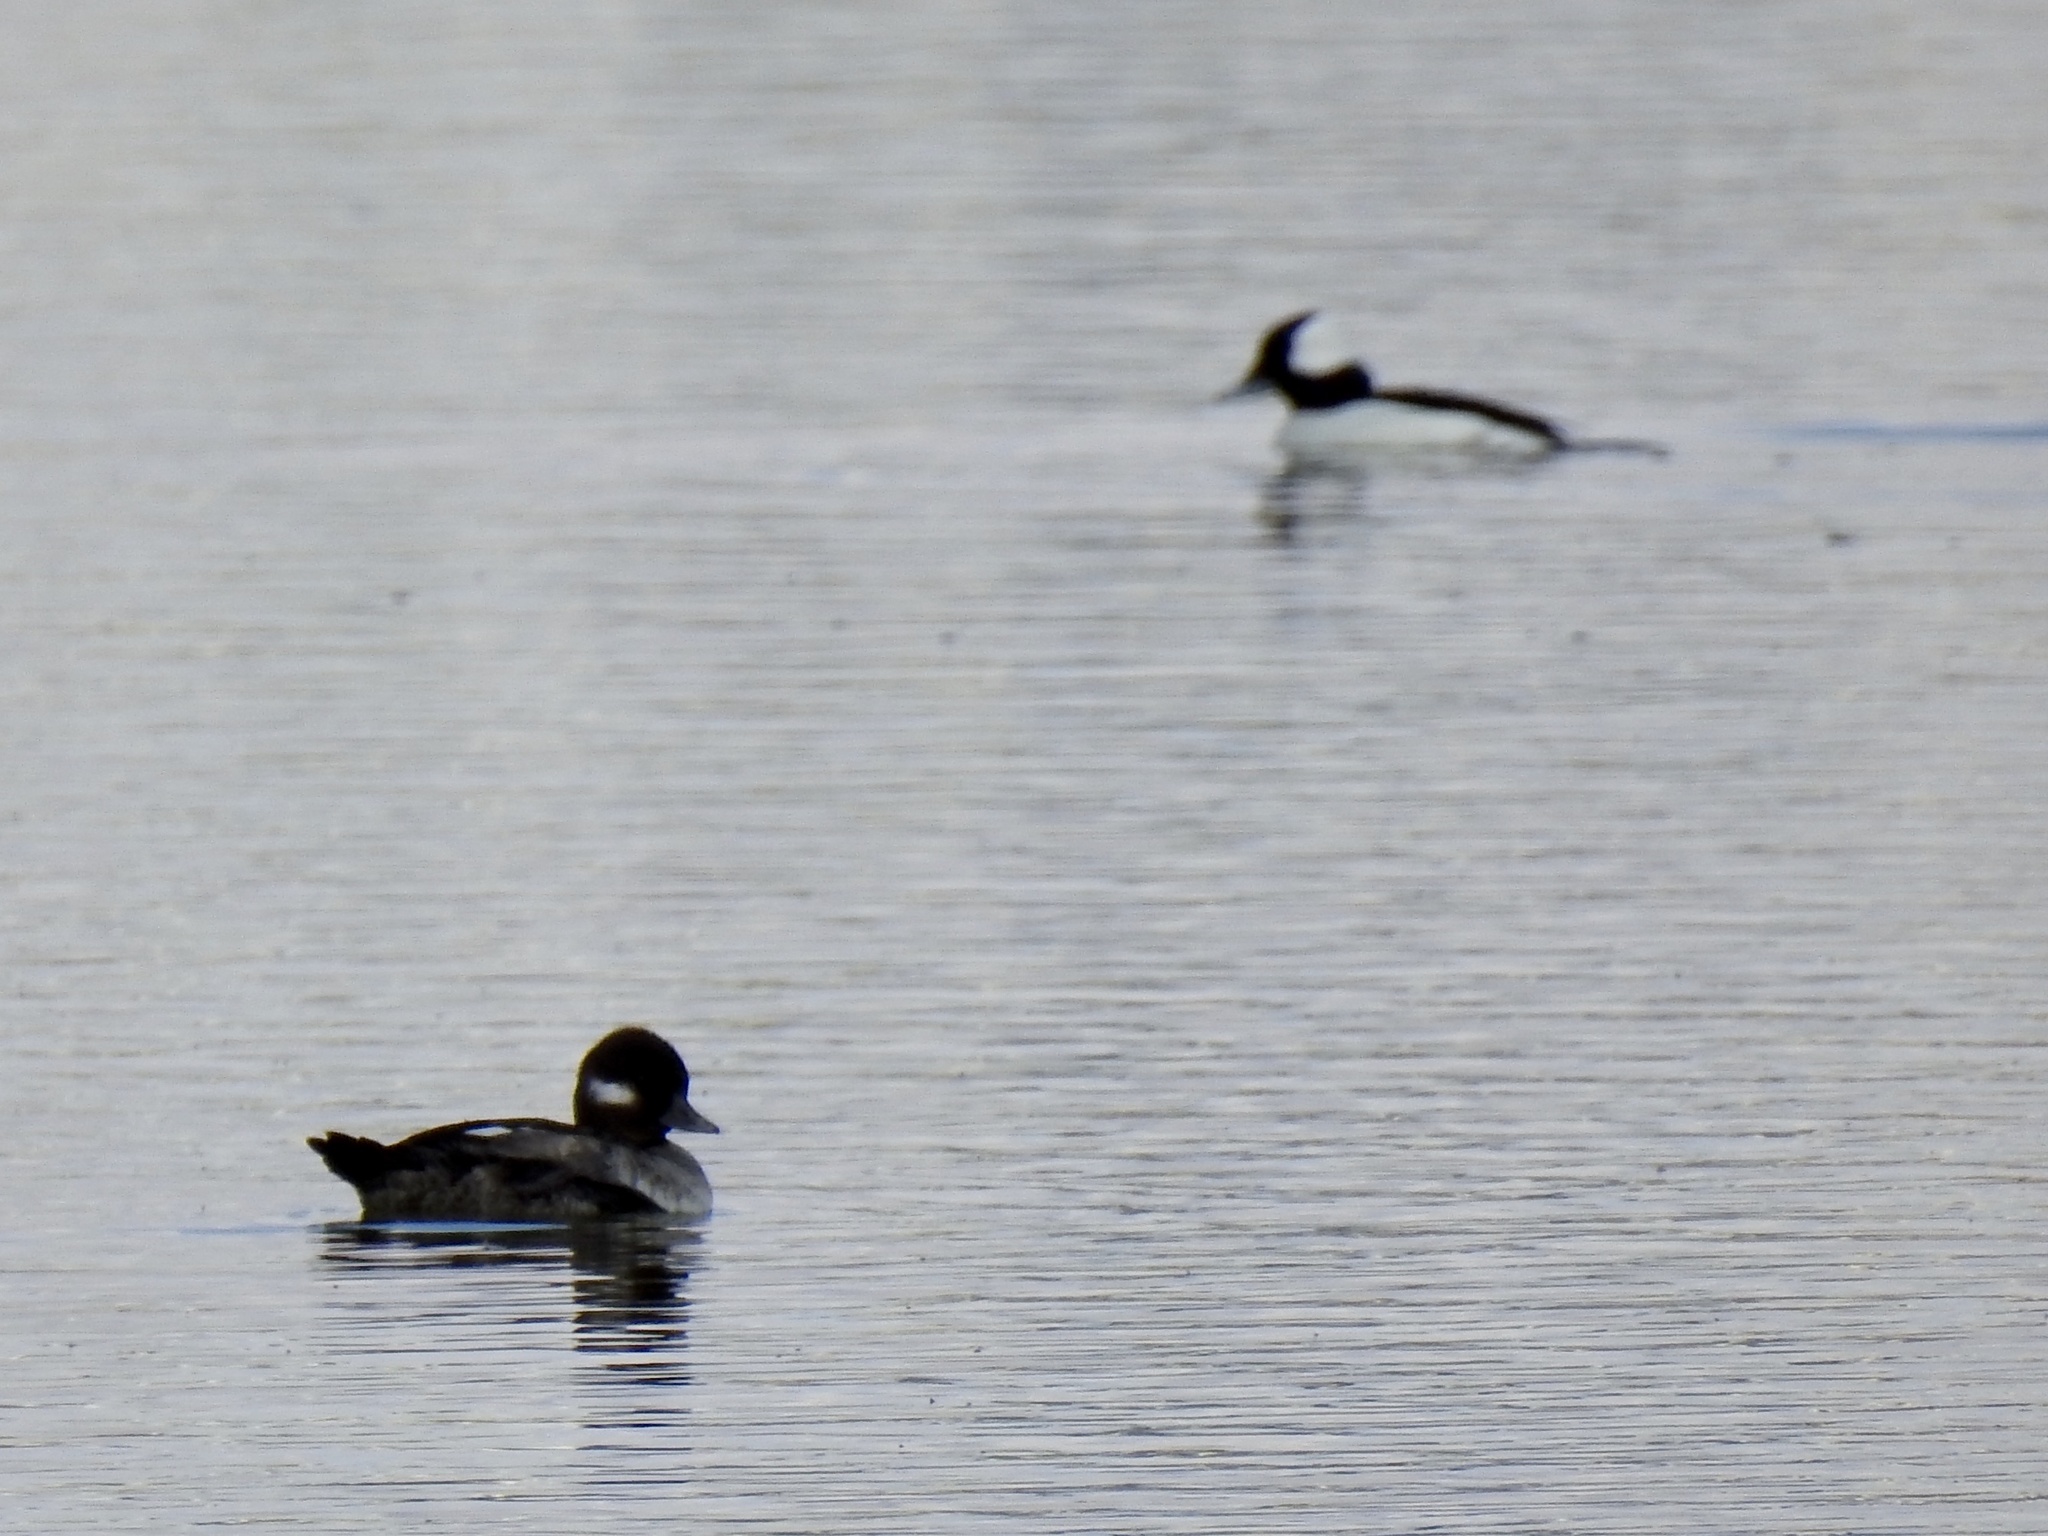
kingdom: Animalia
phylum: Chordata
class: Aves
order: Anseriformes
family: Anatidae
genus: Bucephala
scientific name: Bucephala albeola
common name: Bufflehead
